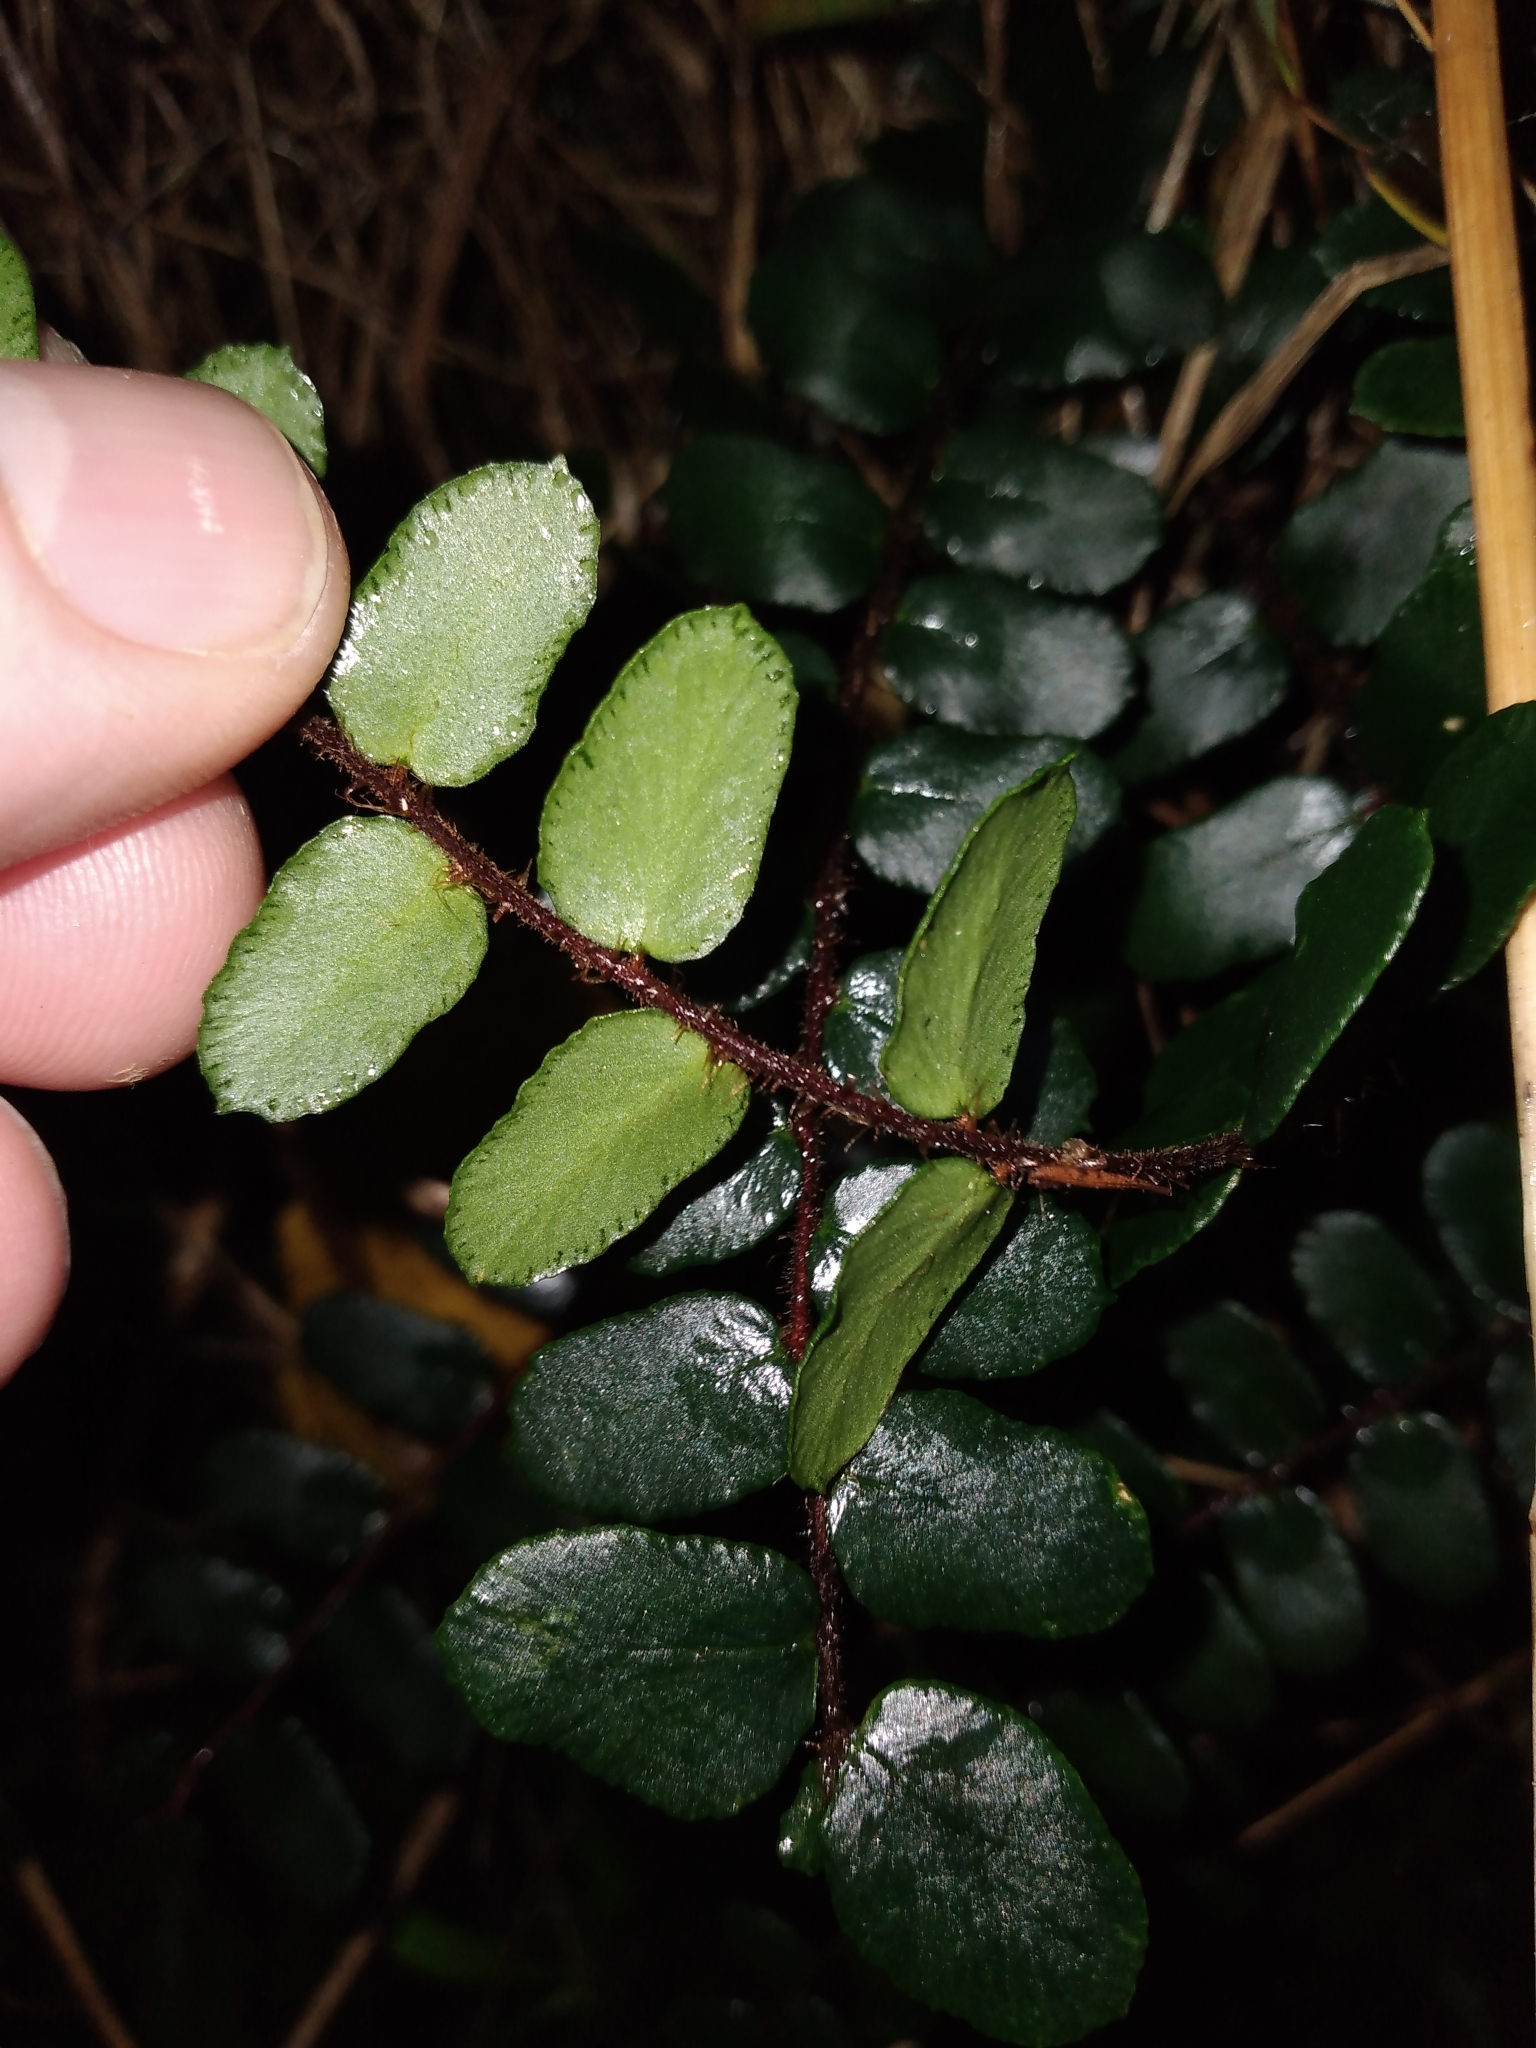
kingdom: Plantae
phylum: Tracheophyta
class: Polypodiopsida
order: Polypodiales
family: Pteridaceae
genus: Pellaea
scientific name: Pellaea rotundifolia
